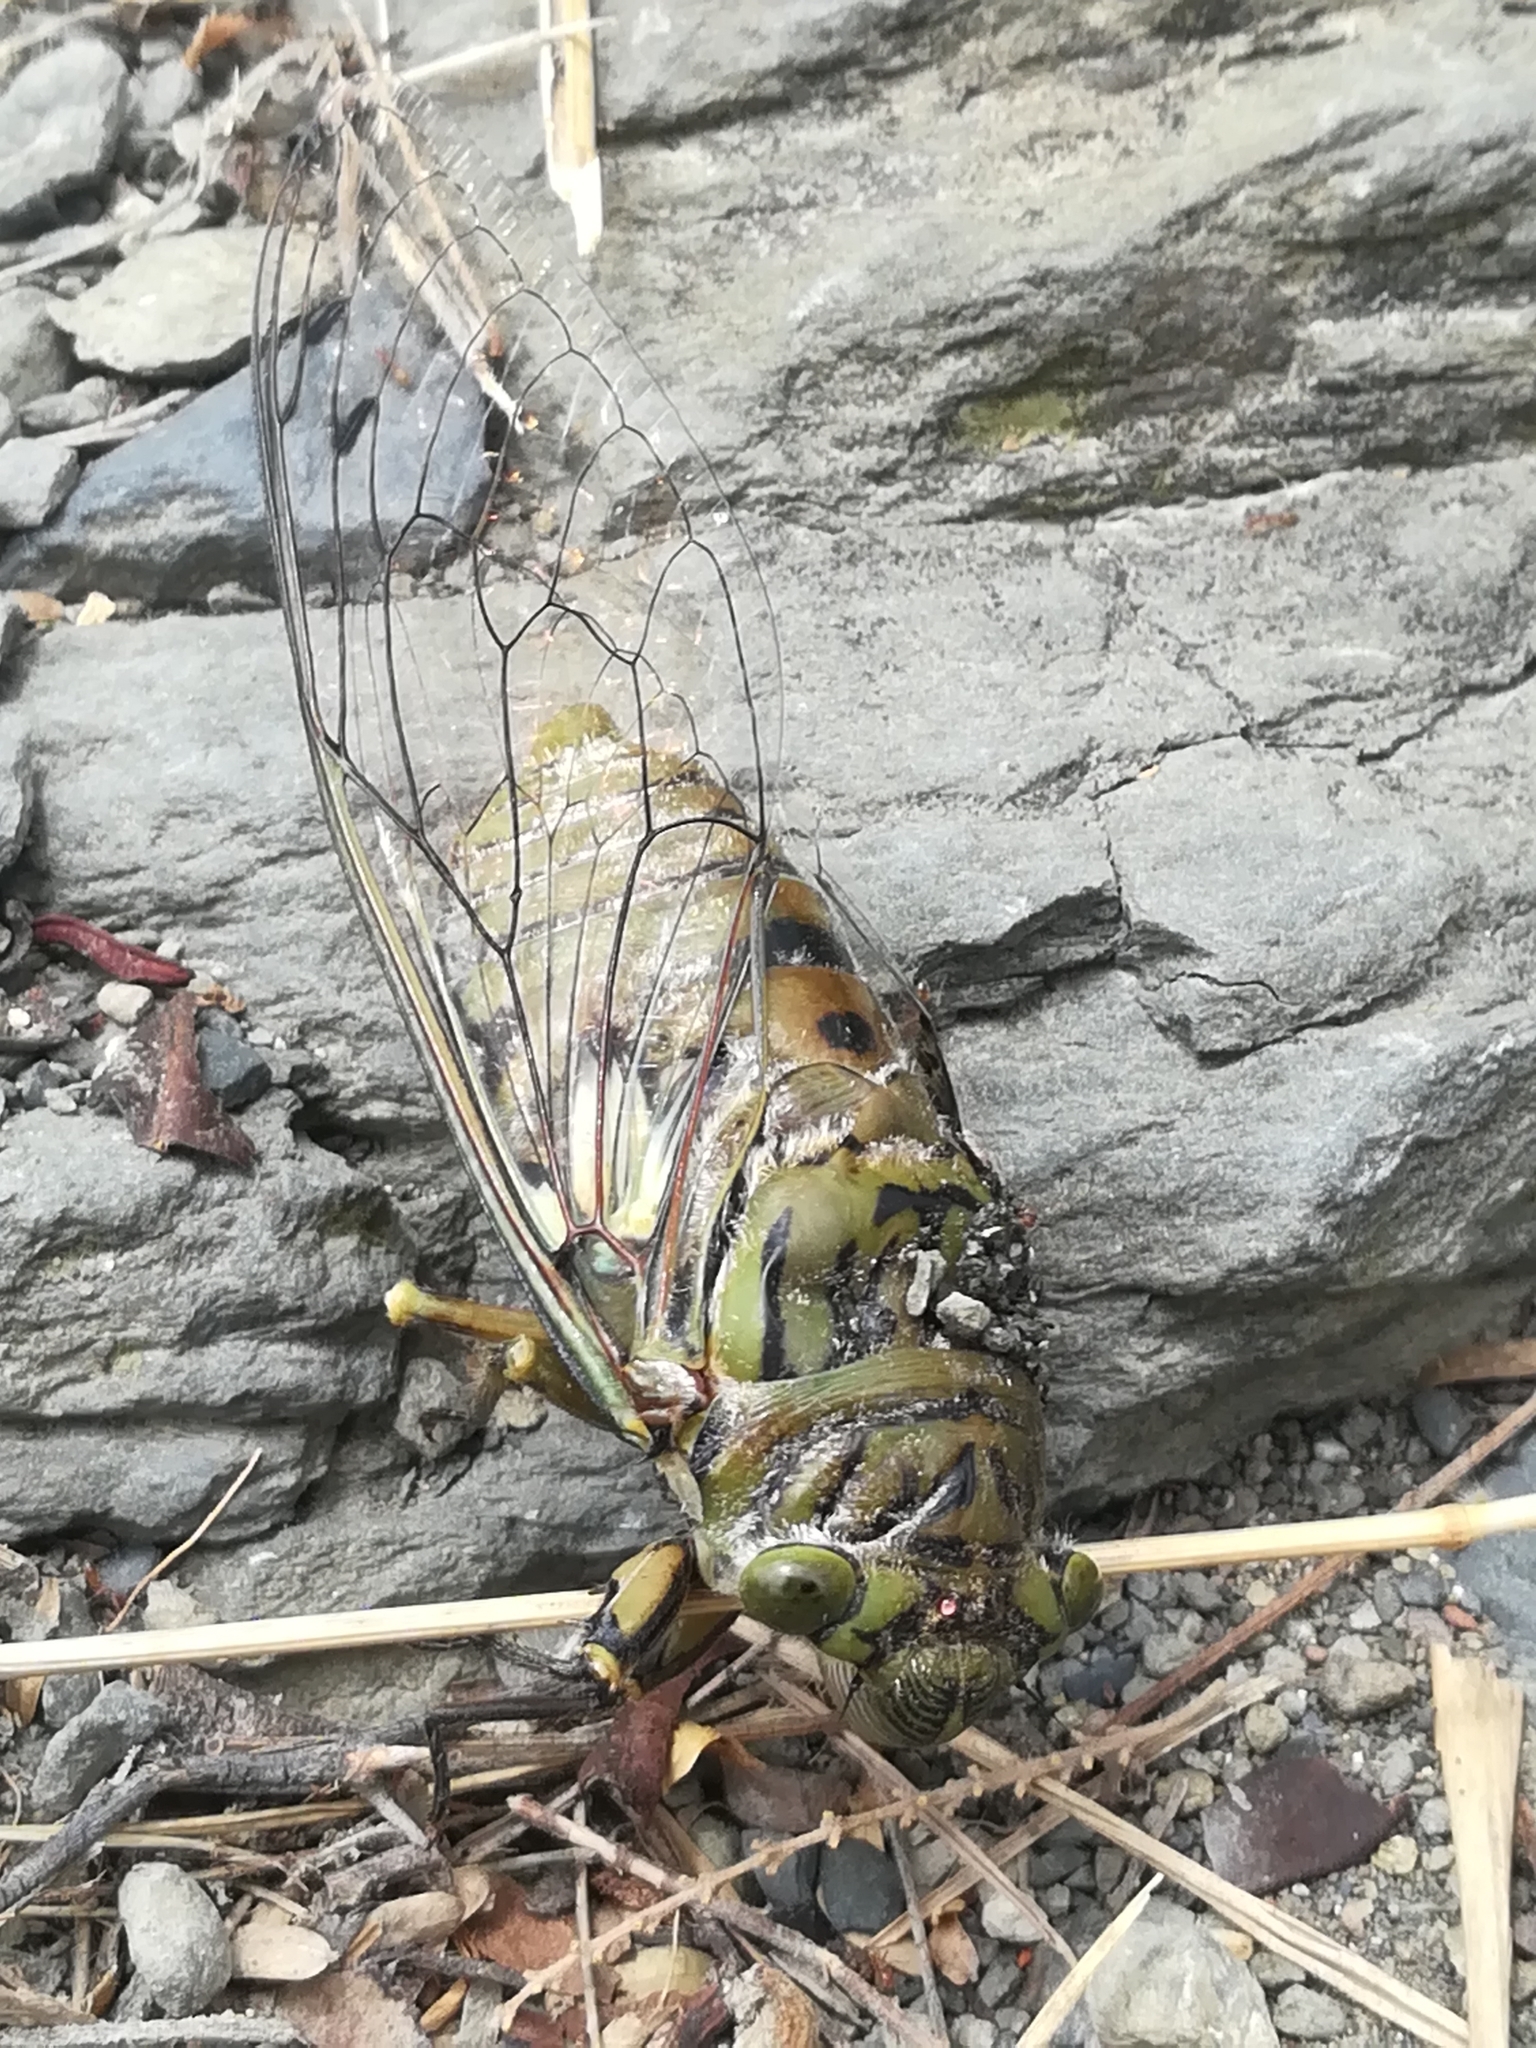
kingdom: Animalia
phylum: Arthropoda
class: Insecta
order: Hemiptera
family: Cicadidae
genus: Quesada
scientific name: Quesada gigas
